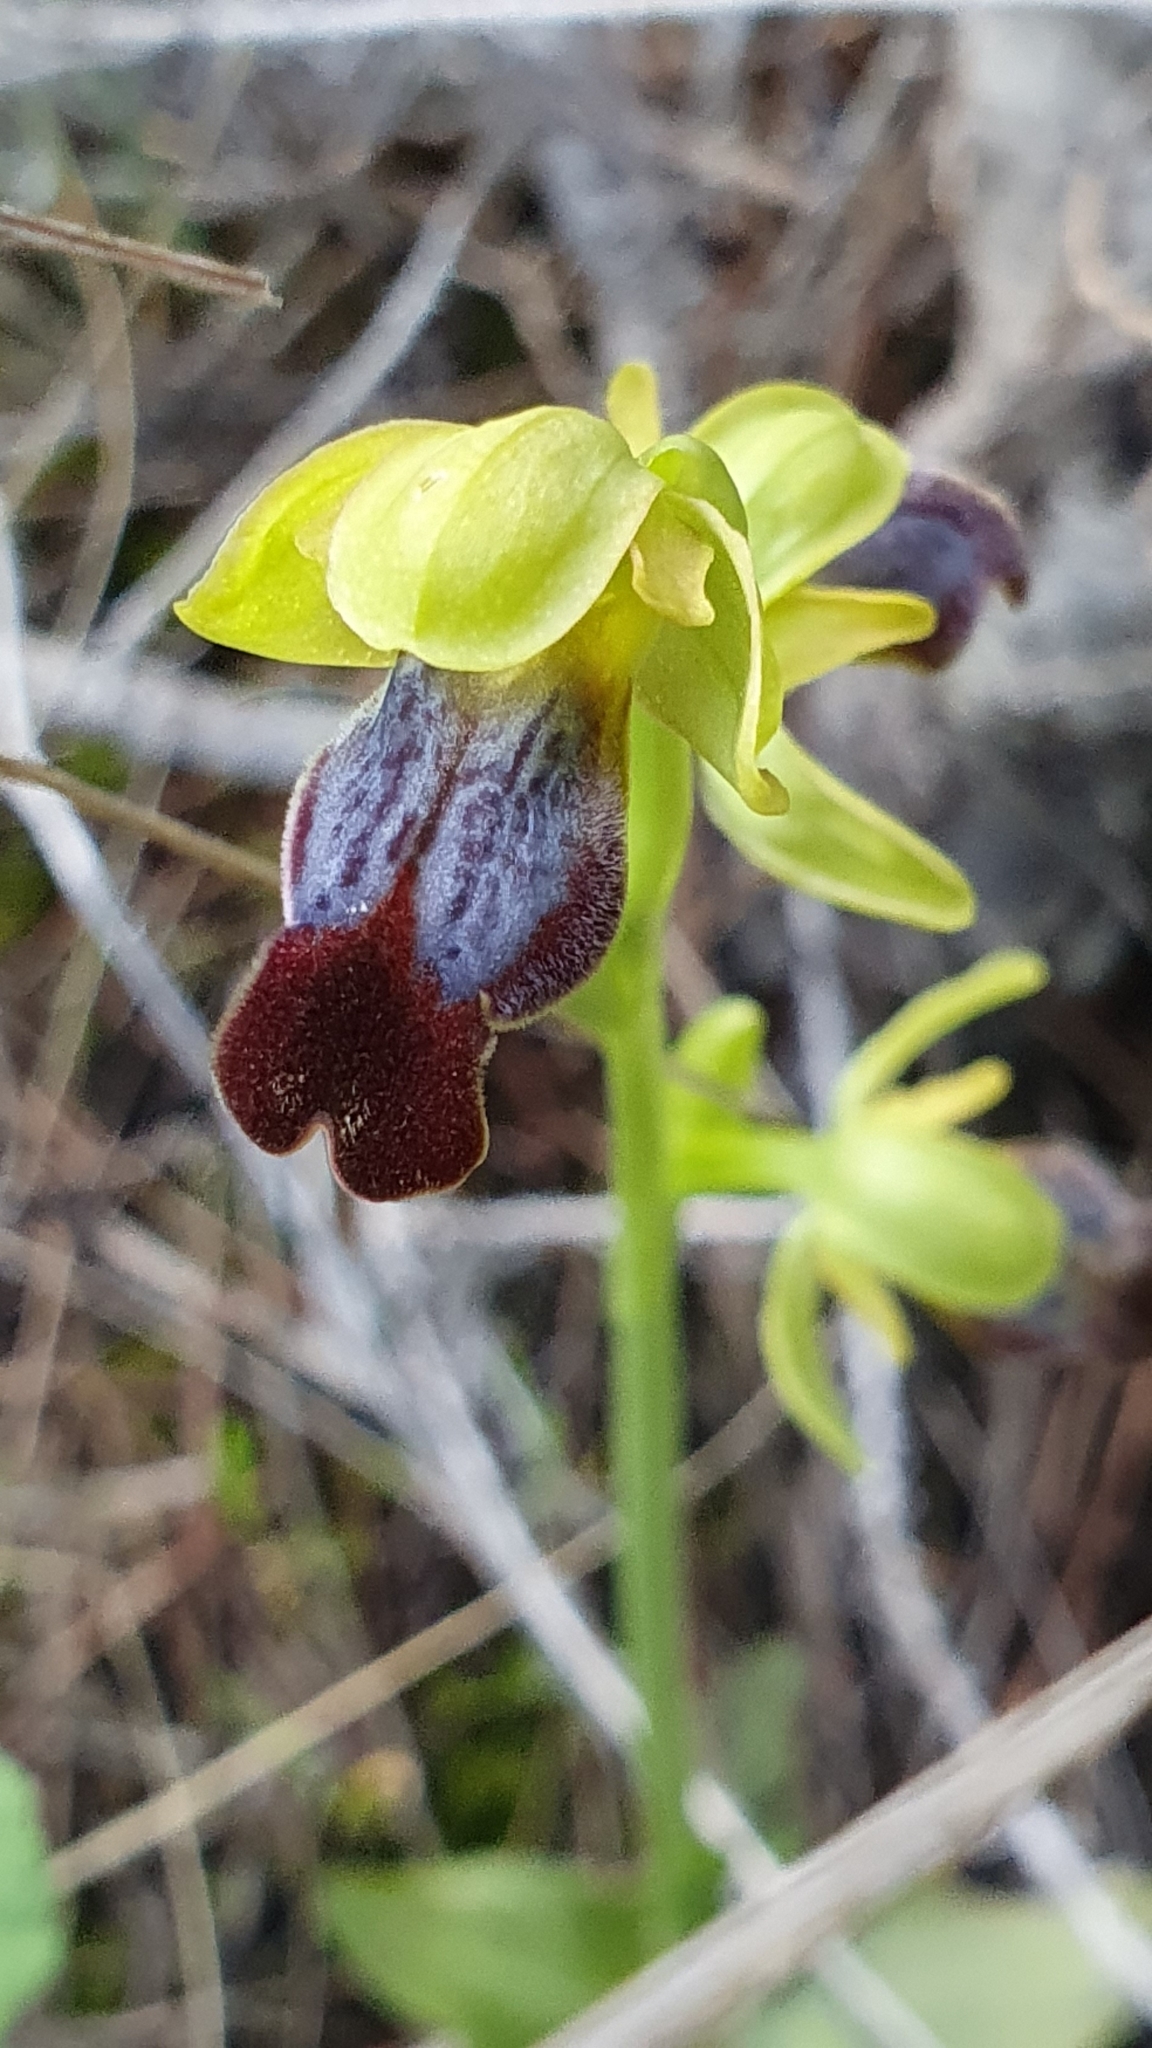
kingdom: Plantae
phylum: Tracheophyta
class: Liliopsida
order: Asparagales
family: Orchidaceae
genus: Ophrys
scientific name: Ophrys fusca
